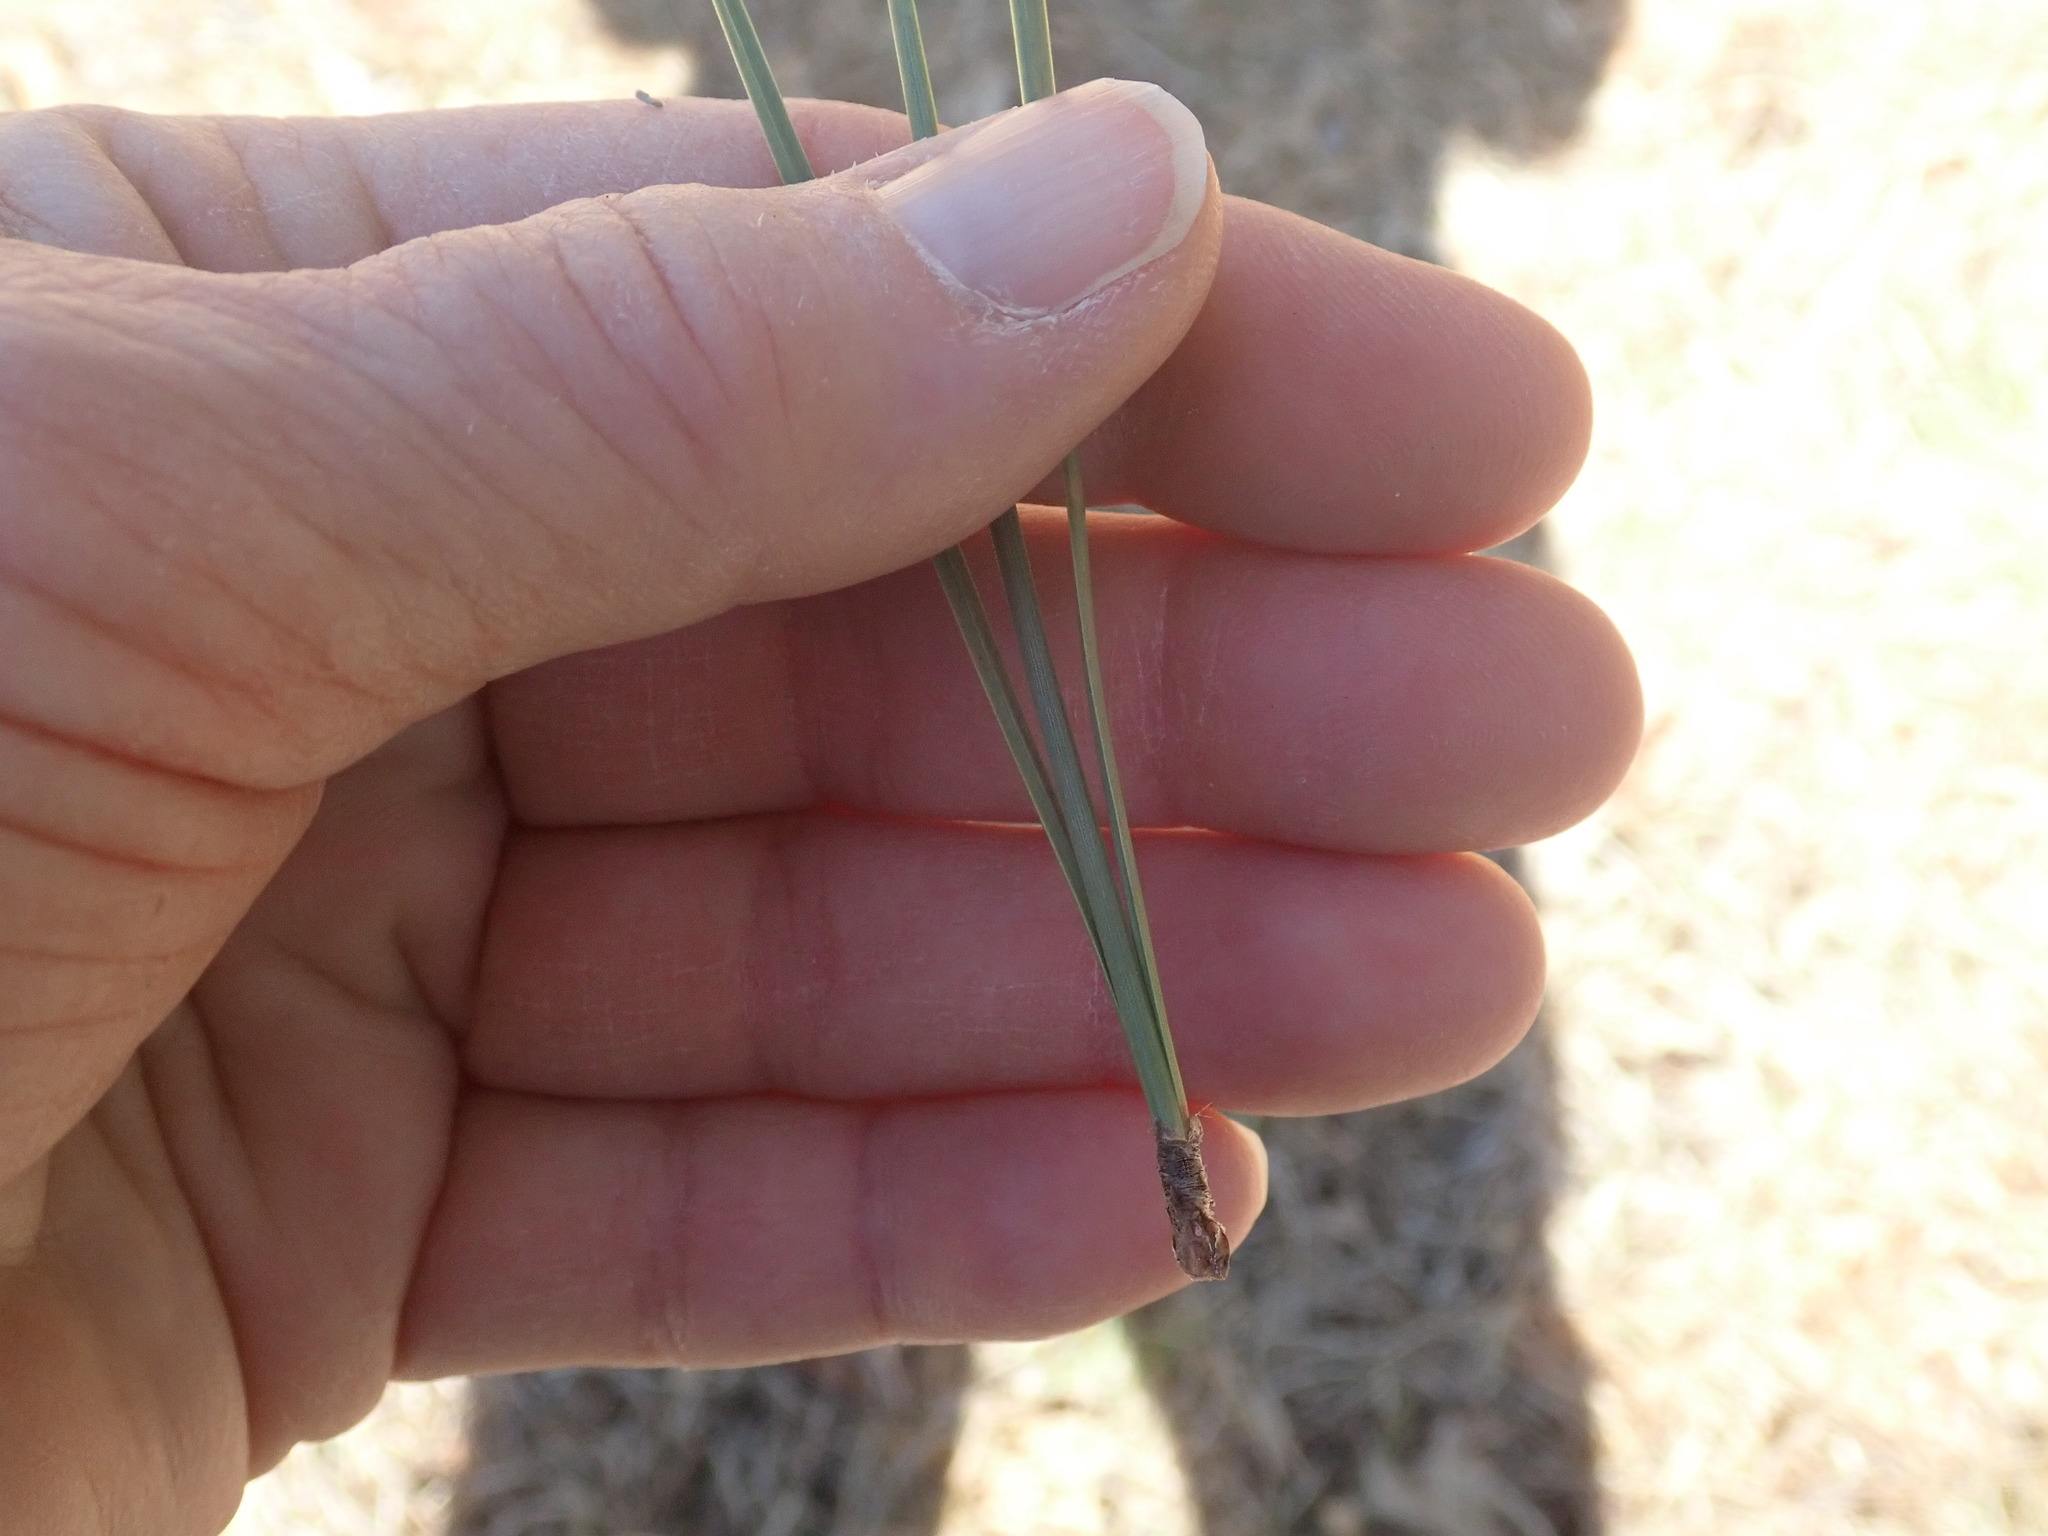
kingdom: Plantae
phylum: Tracheophyta
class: Pinopsida
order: Pinales
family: Pinaceae
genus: Pinus
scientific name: Pinus rigida
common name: Pitch pine
